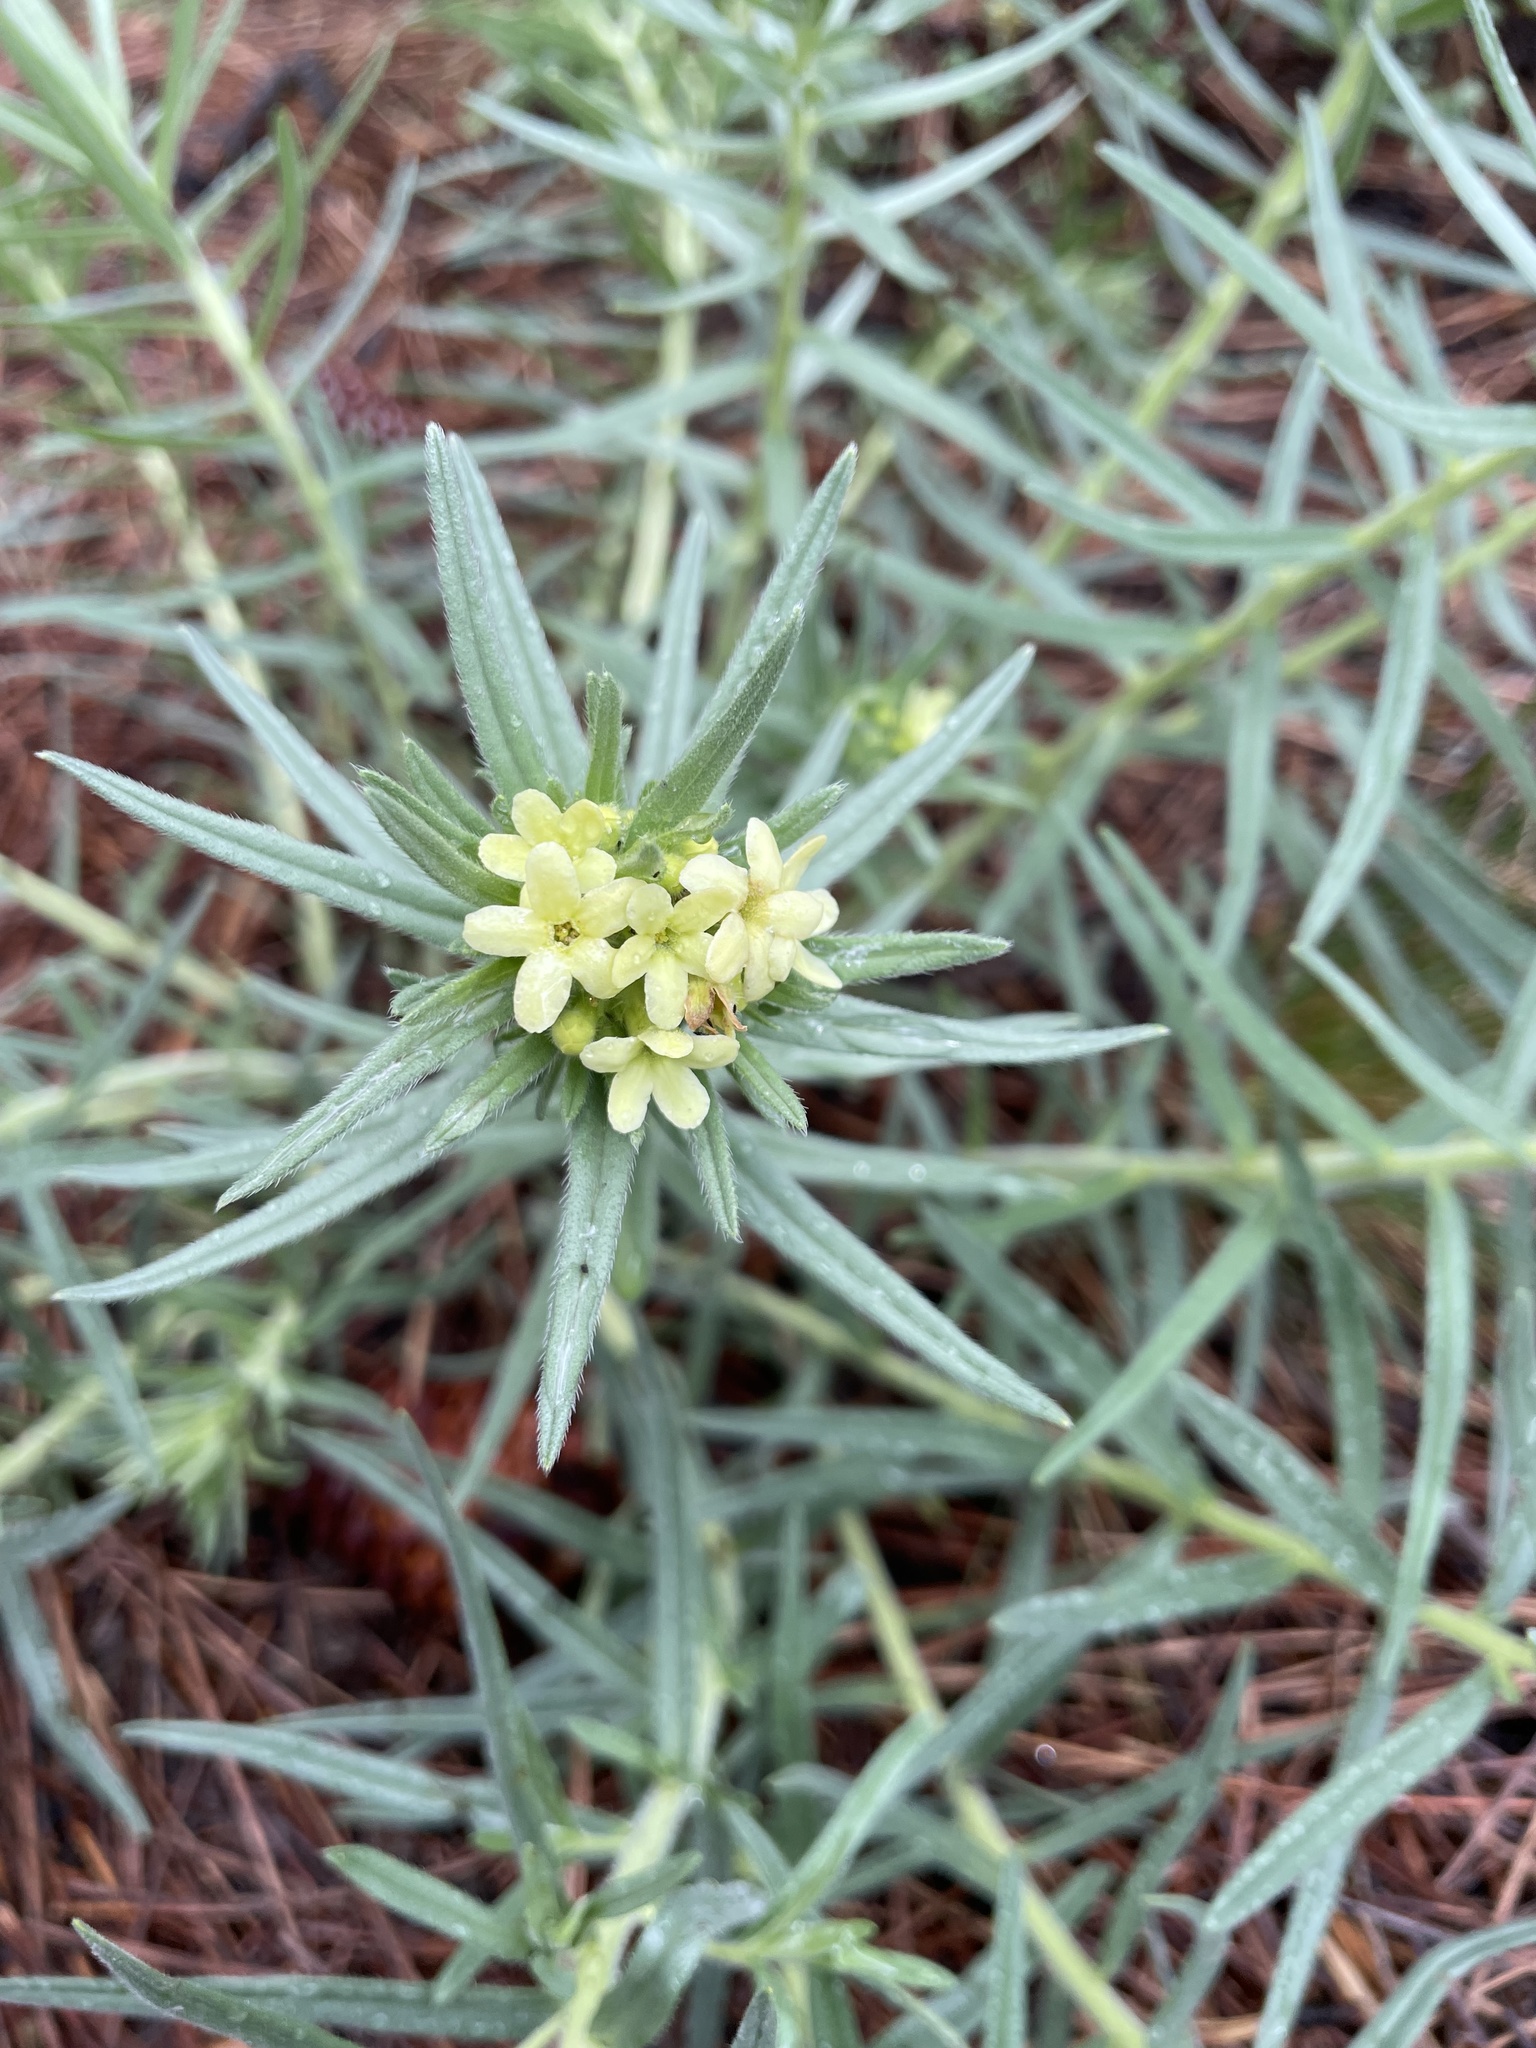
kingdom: Plantae
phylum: Tracheophyta
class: Magnoliopsida
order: Boraginales
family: Boraginaceae
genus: Lithospermum
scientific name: Lithospermum ruderale
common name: Western gromwell
